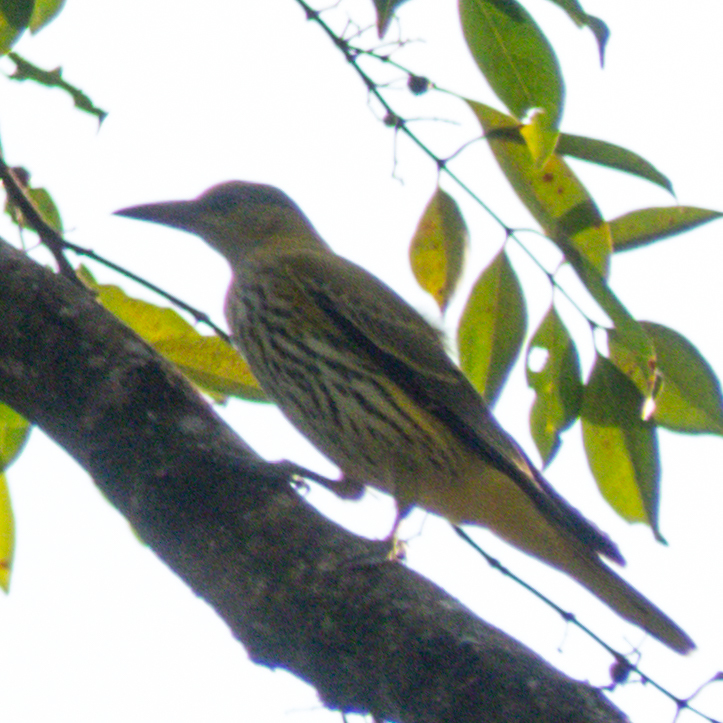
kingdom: Animalia
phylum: Chordata
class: Aves
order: Passeriformes
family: Oriolidae
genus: Oriolus
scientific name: Oriolus chinensis
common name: Black-naped oriole
